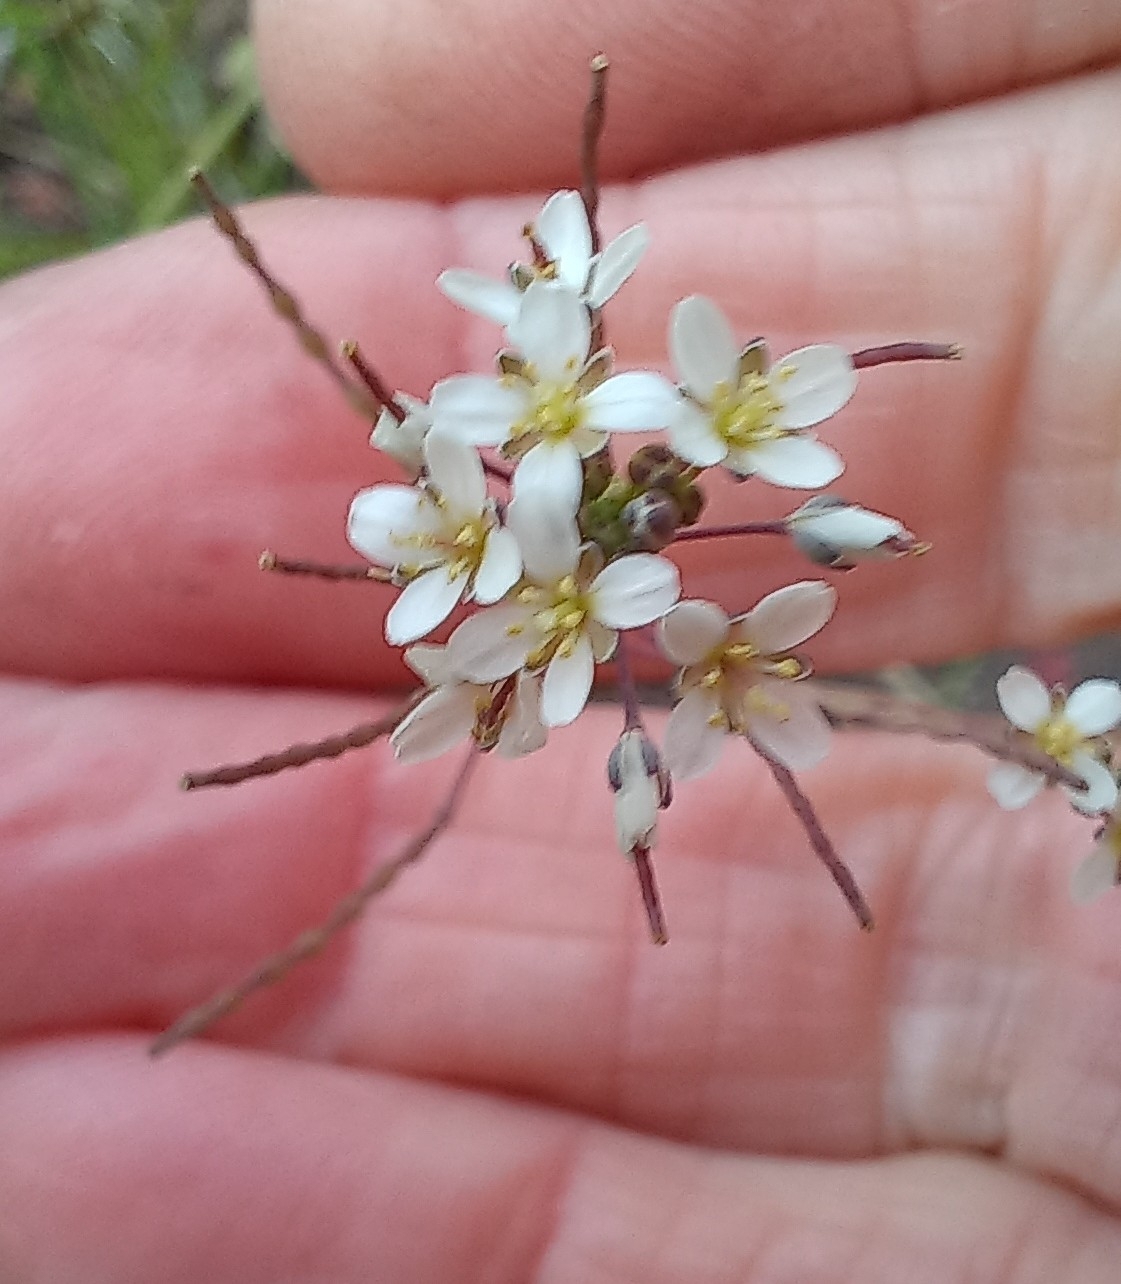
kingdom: Plantae
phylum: Tracheophyta
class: Magnoliopsida
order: Brassicales
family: Brassicaceae
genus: Heliophila
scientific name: Heliophila pusilla
